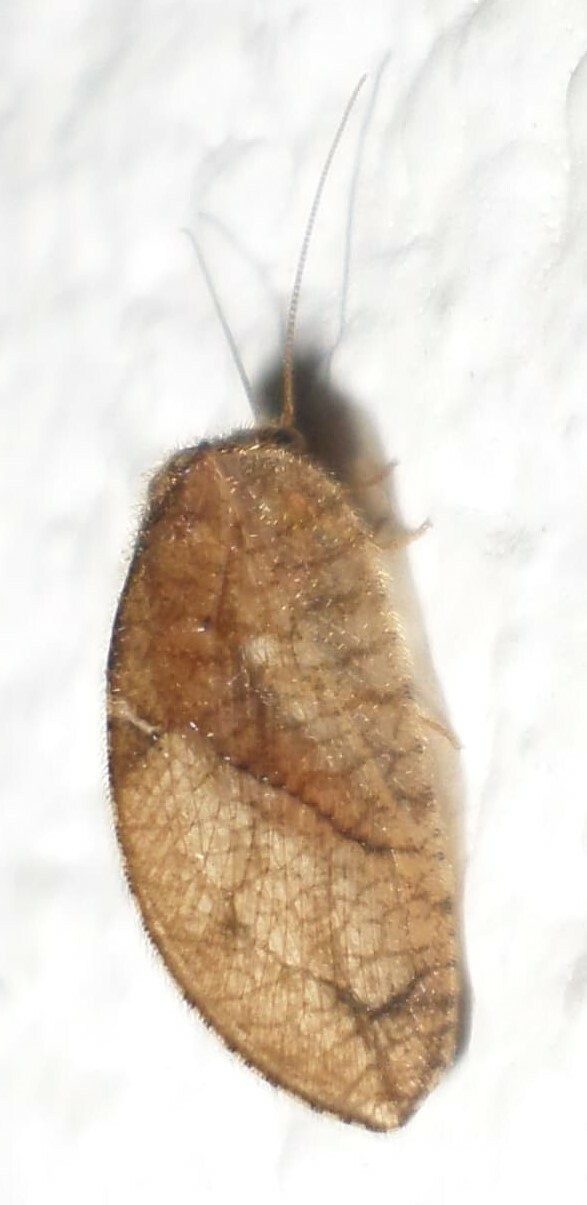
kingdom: Animalia
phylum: Arthropoda
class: Insecta
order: Neuroptera
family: Hemerobiidae
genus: Megalomus
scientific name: Megalomus moestus
